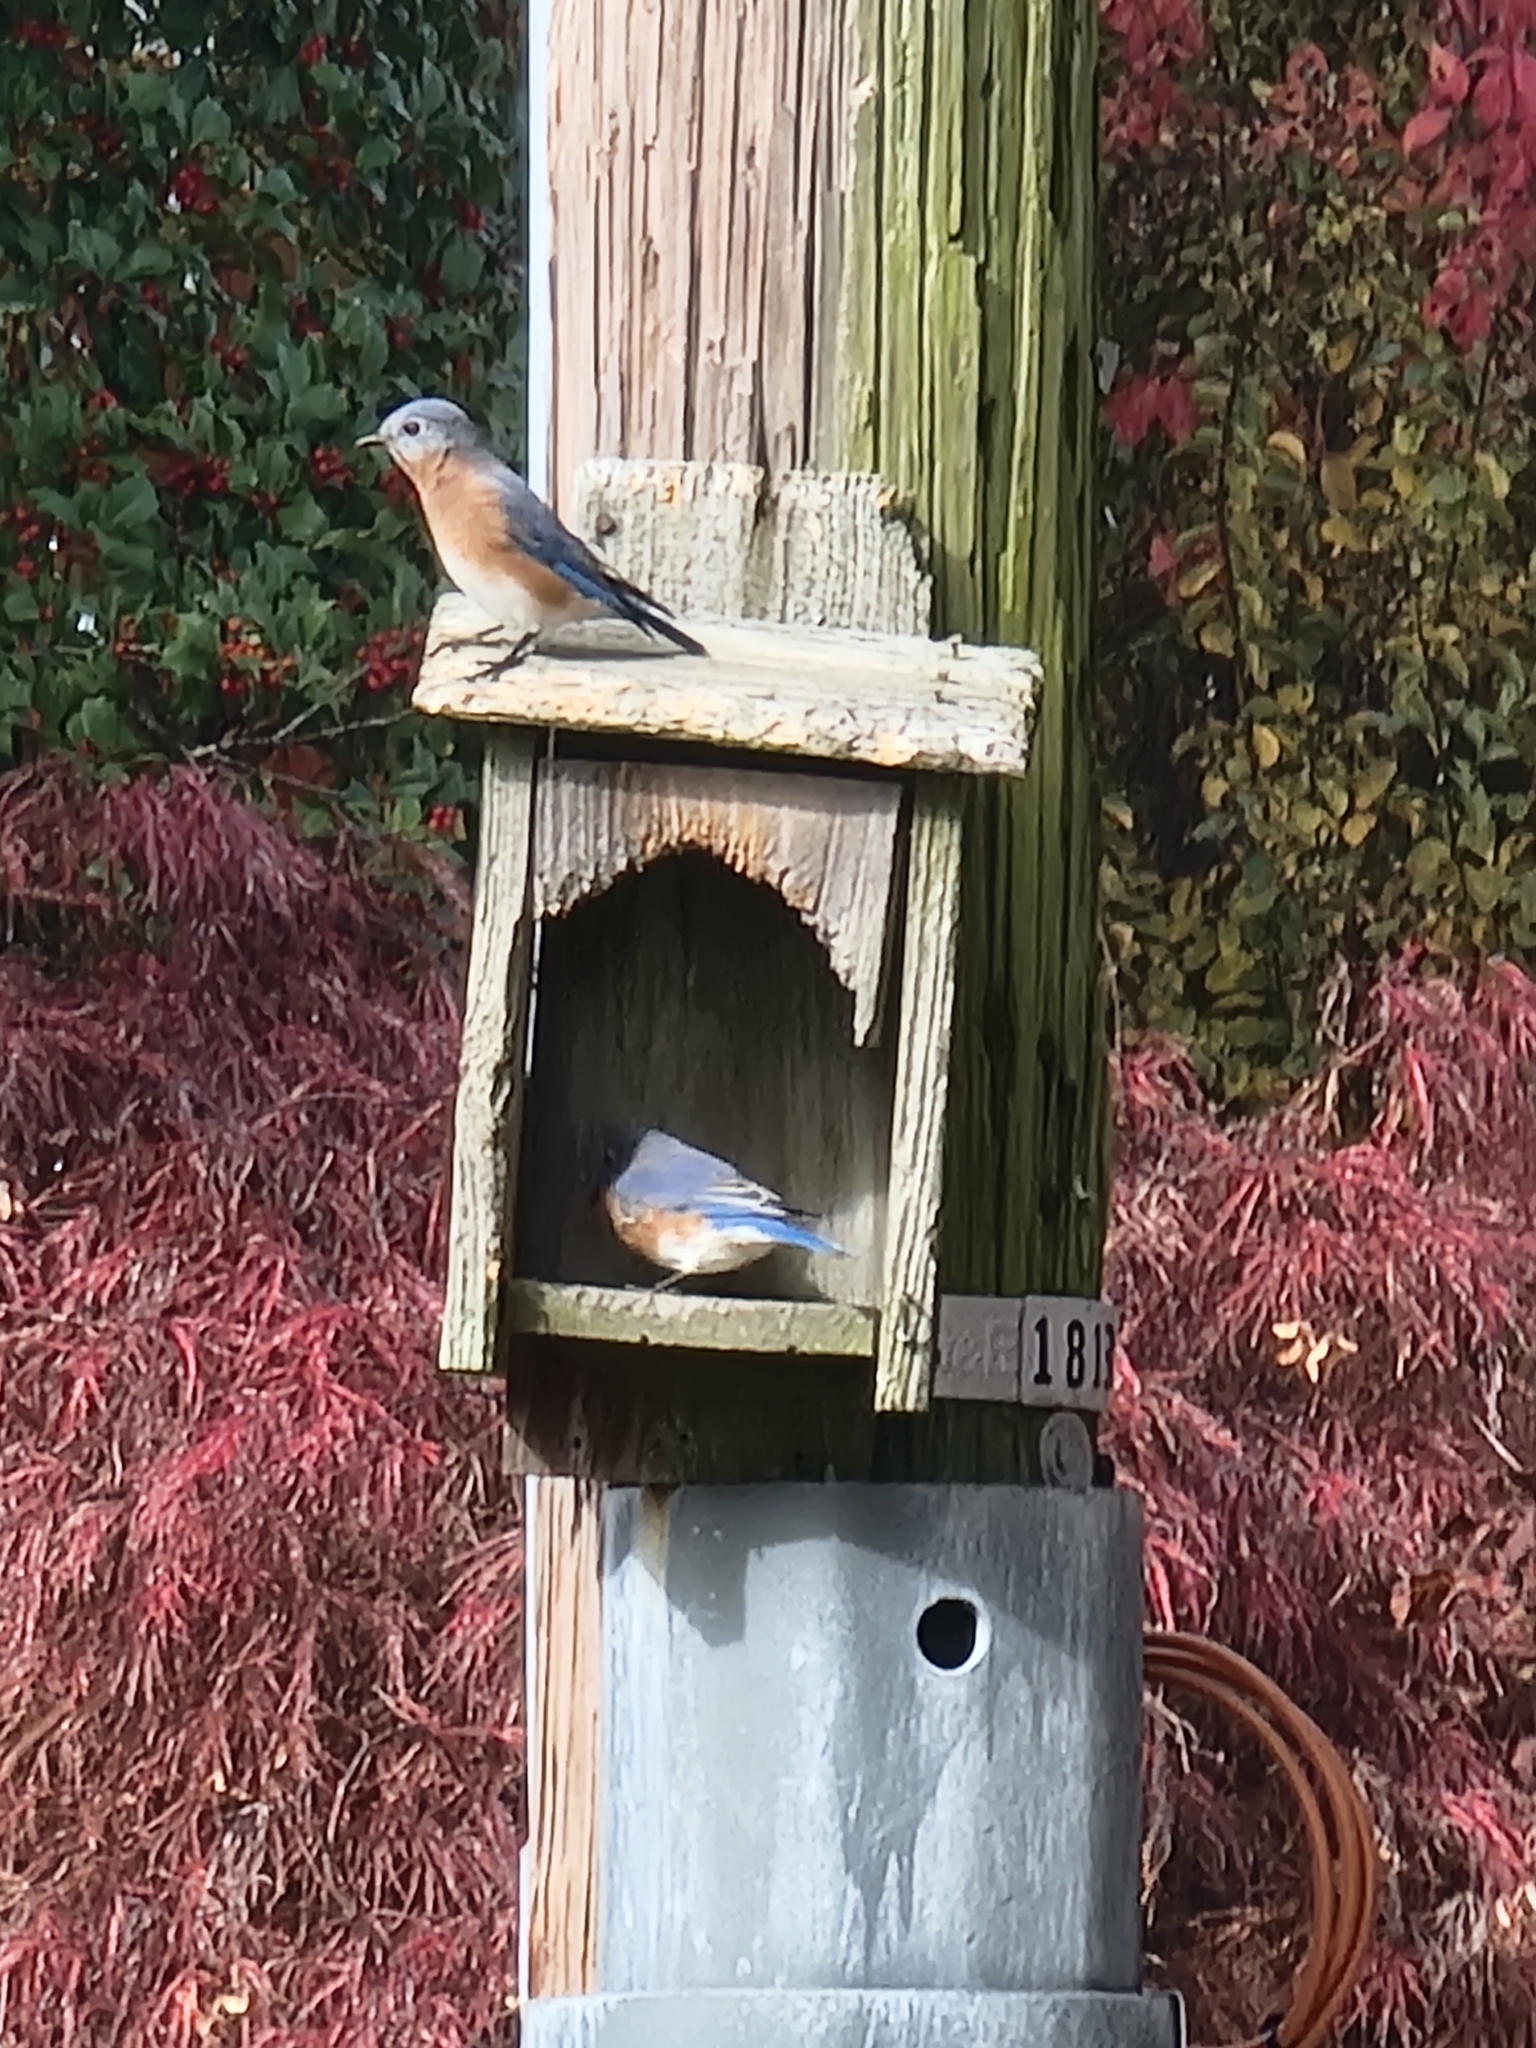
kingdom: Animalia
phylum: Chordata
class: Aves
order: Passeriformes
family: Turdidae
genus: Sialia
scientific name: Sialia sialis
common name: Eastern bluebird
